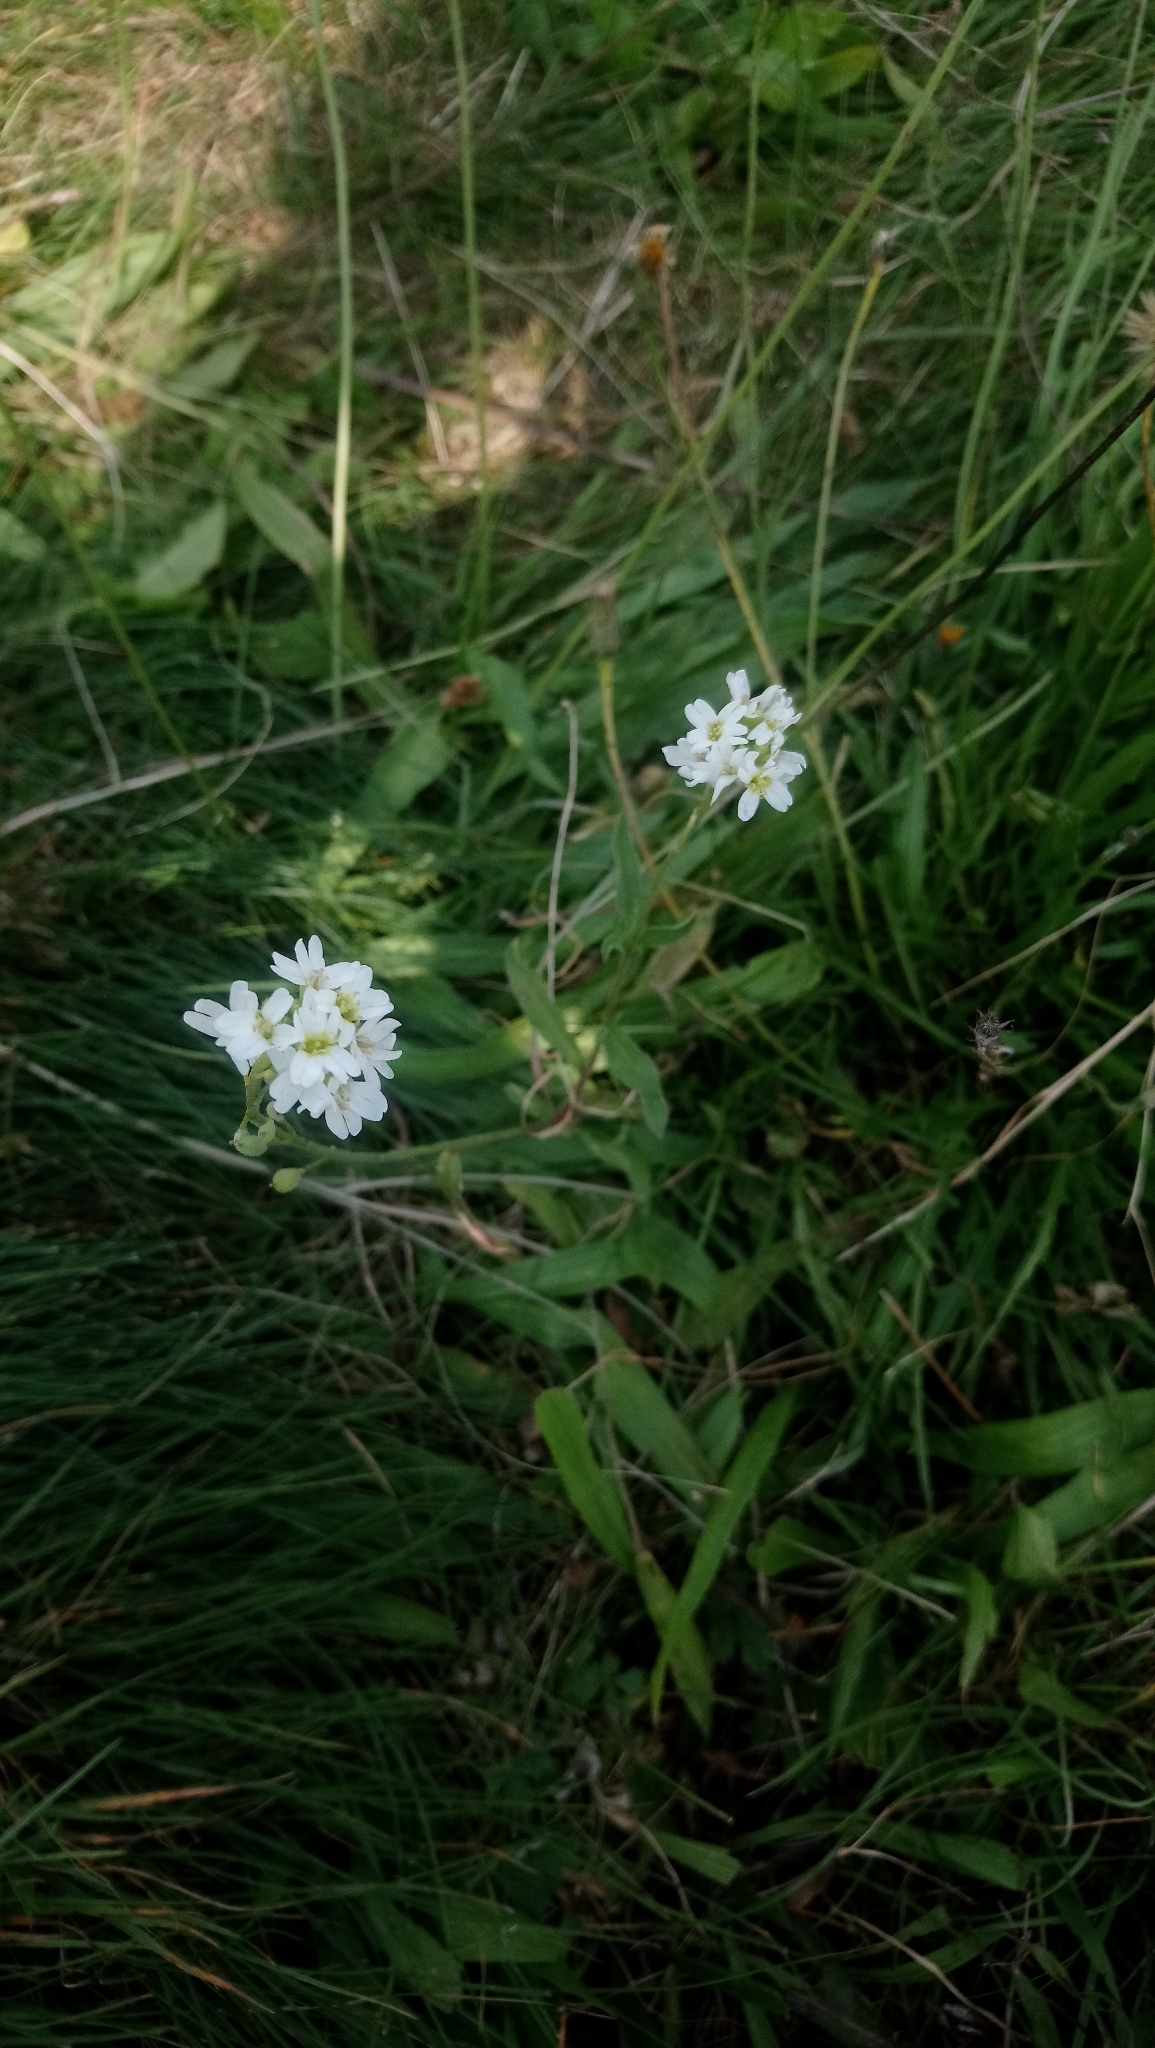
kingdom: Plantae
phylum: Tracheophyta
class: Magnoliopsida
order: Brassicales
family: Brassicaceae
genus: Berteroa
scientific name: Berteroa incana
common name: Hoary alison
